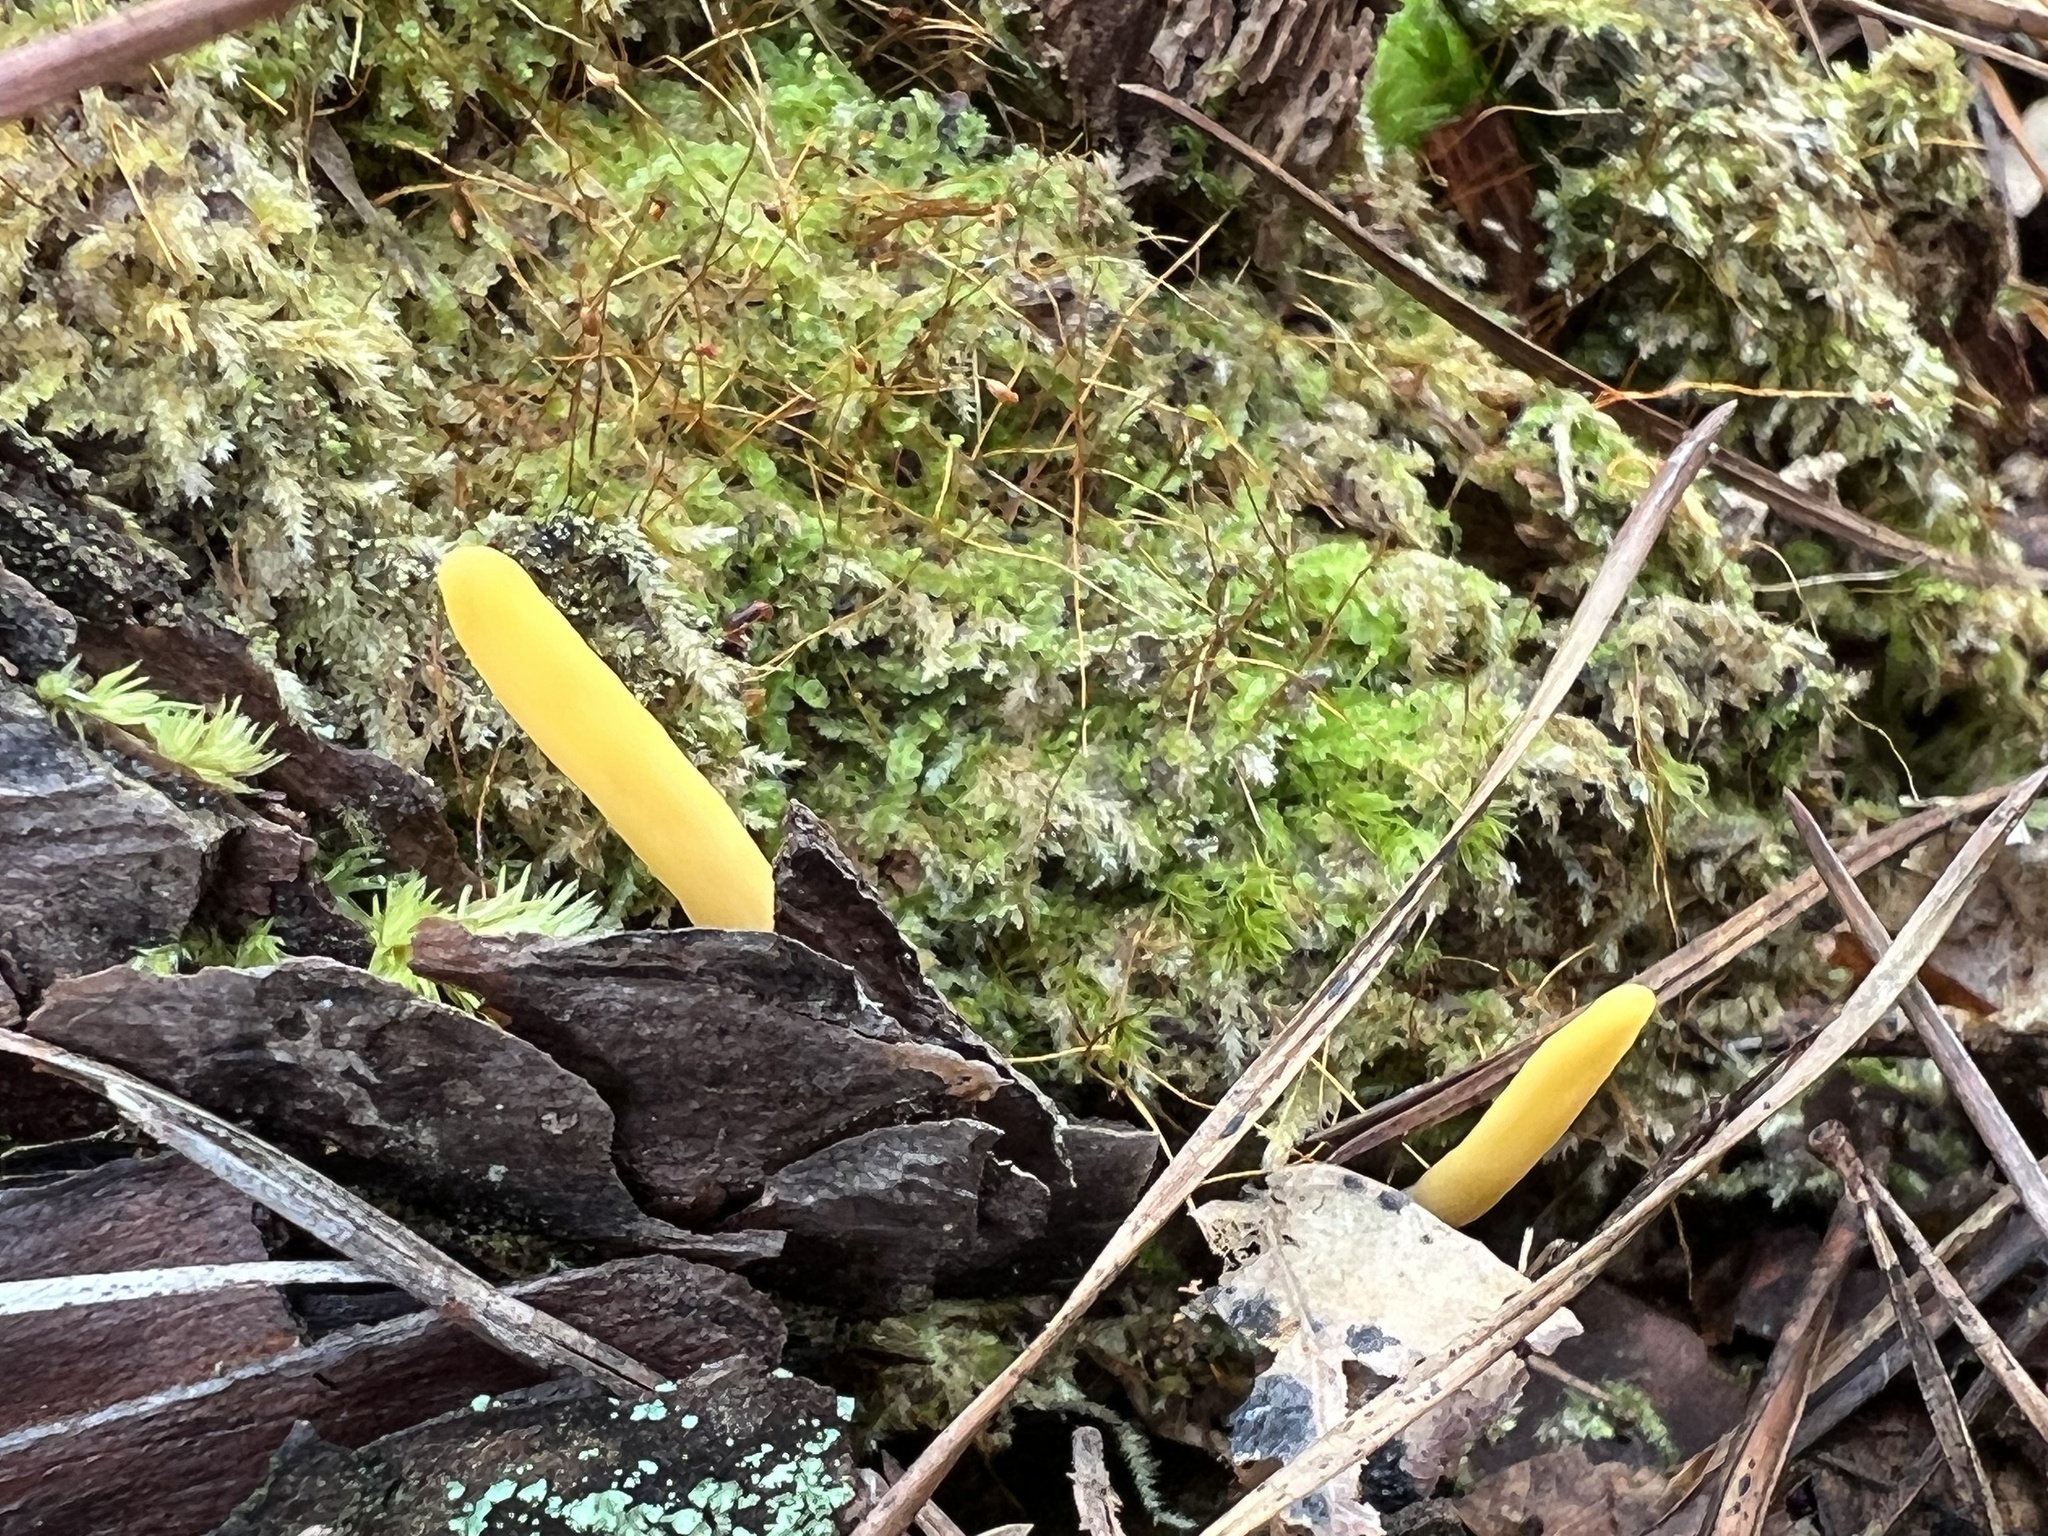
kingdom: Fungi
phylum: Ascomycota
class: Neolectomycetes
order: Neolectales
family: Neolectaceae
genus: Neolecta
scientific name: Neolecta vitellina
